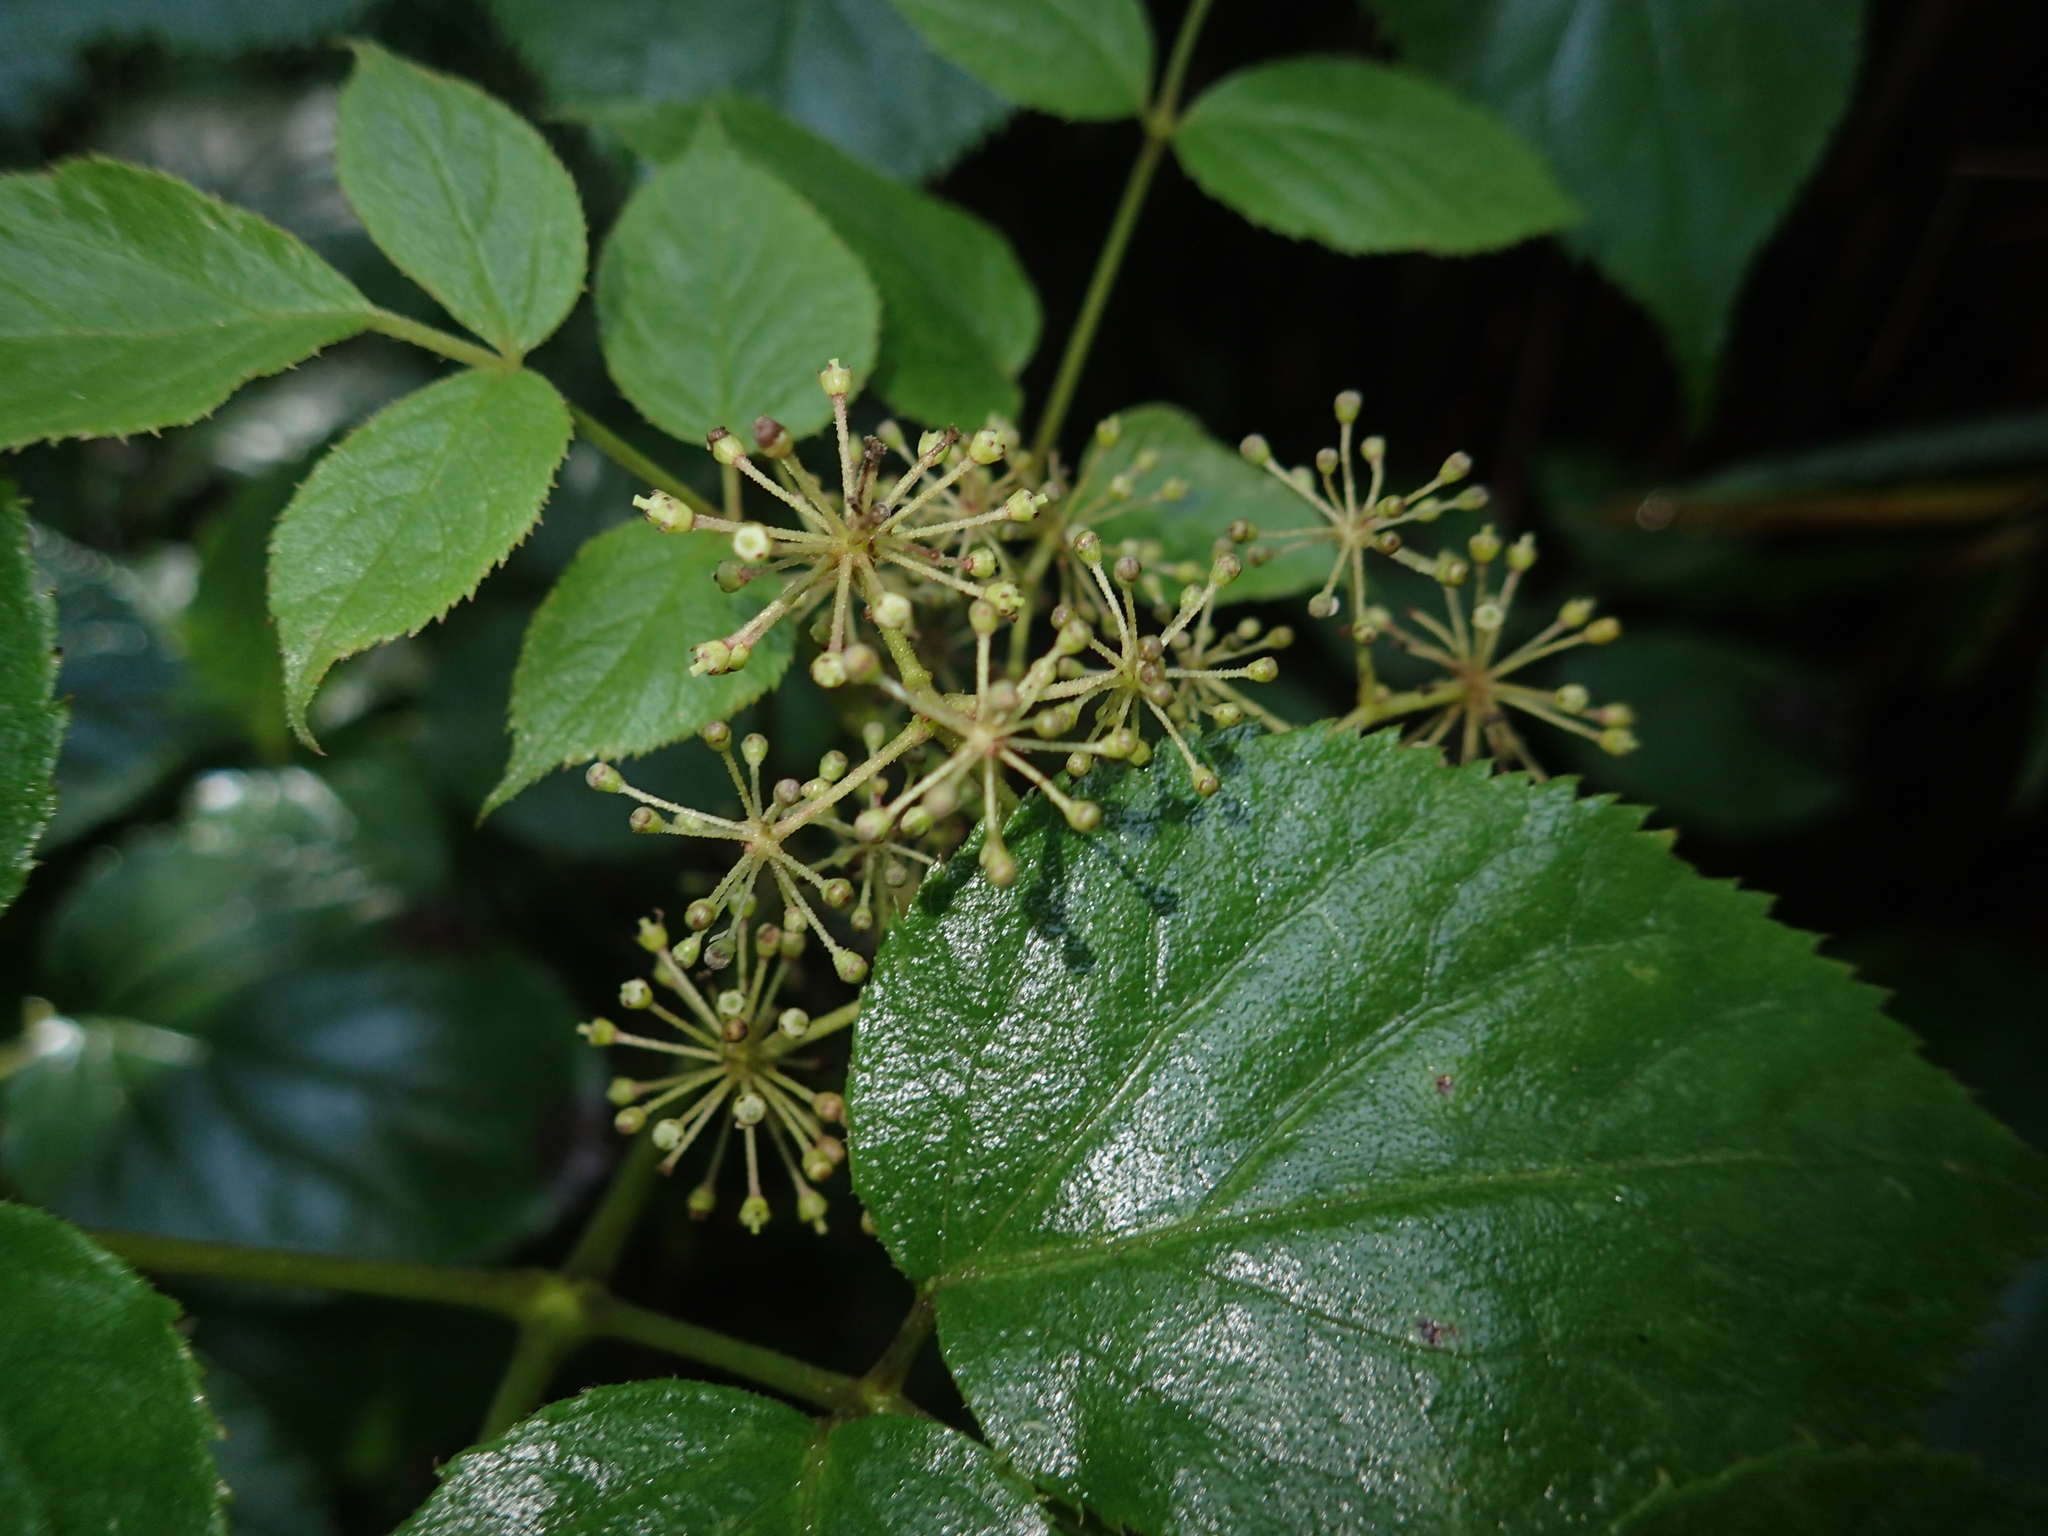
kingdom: Plantae
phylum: Tracheophyta
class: Magnoliopsida
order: Apiales
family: Araliaceae
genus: Aralia
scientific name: Aralia cordata
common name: Udo
